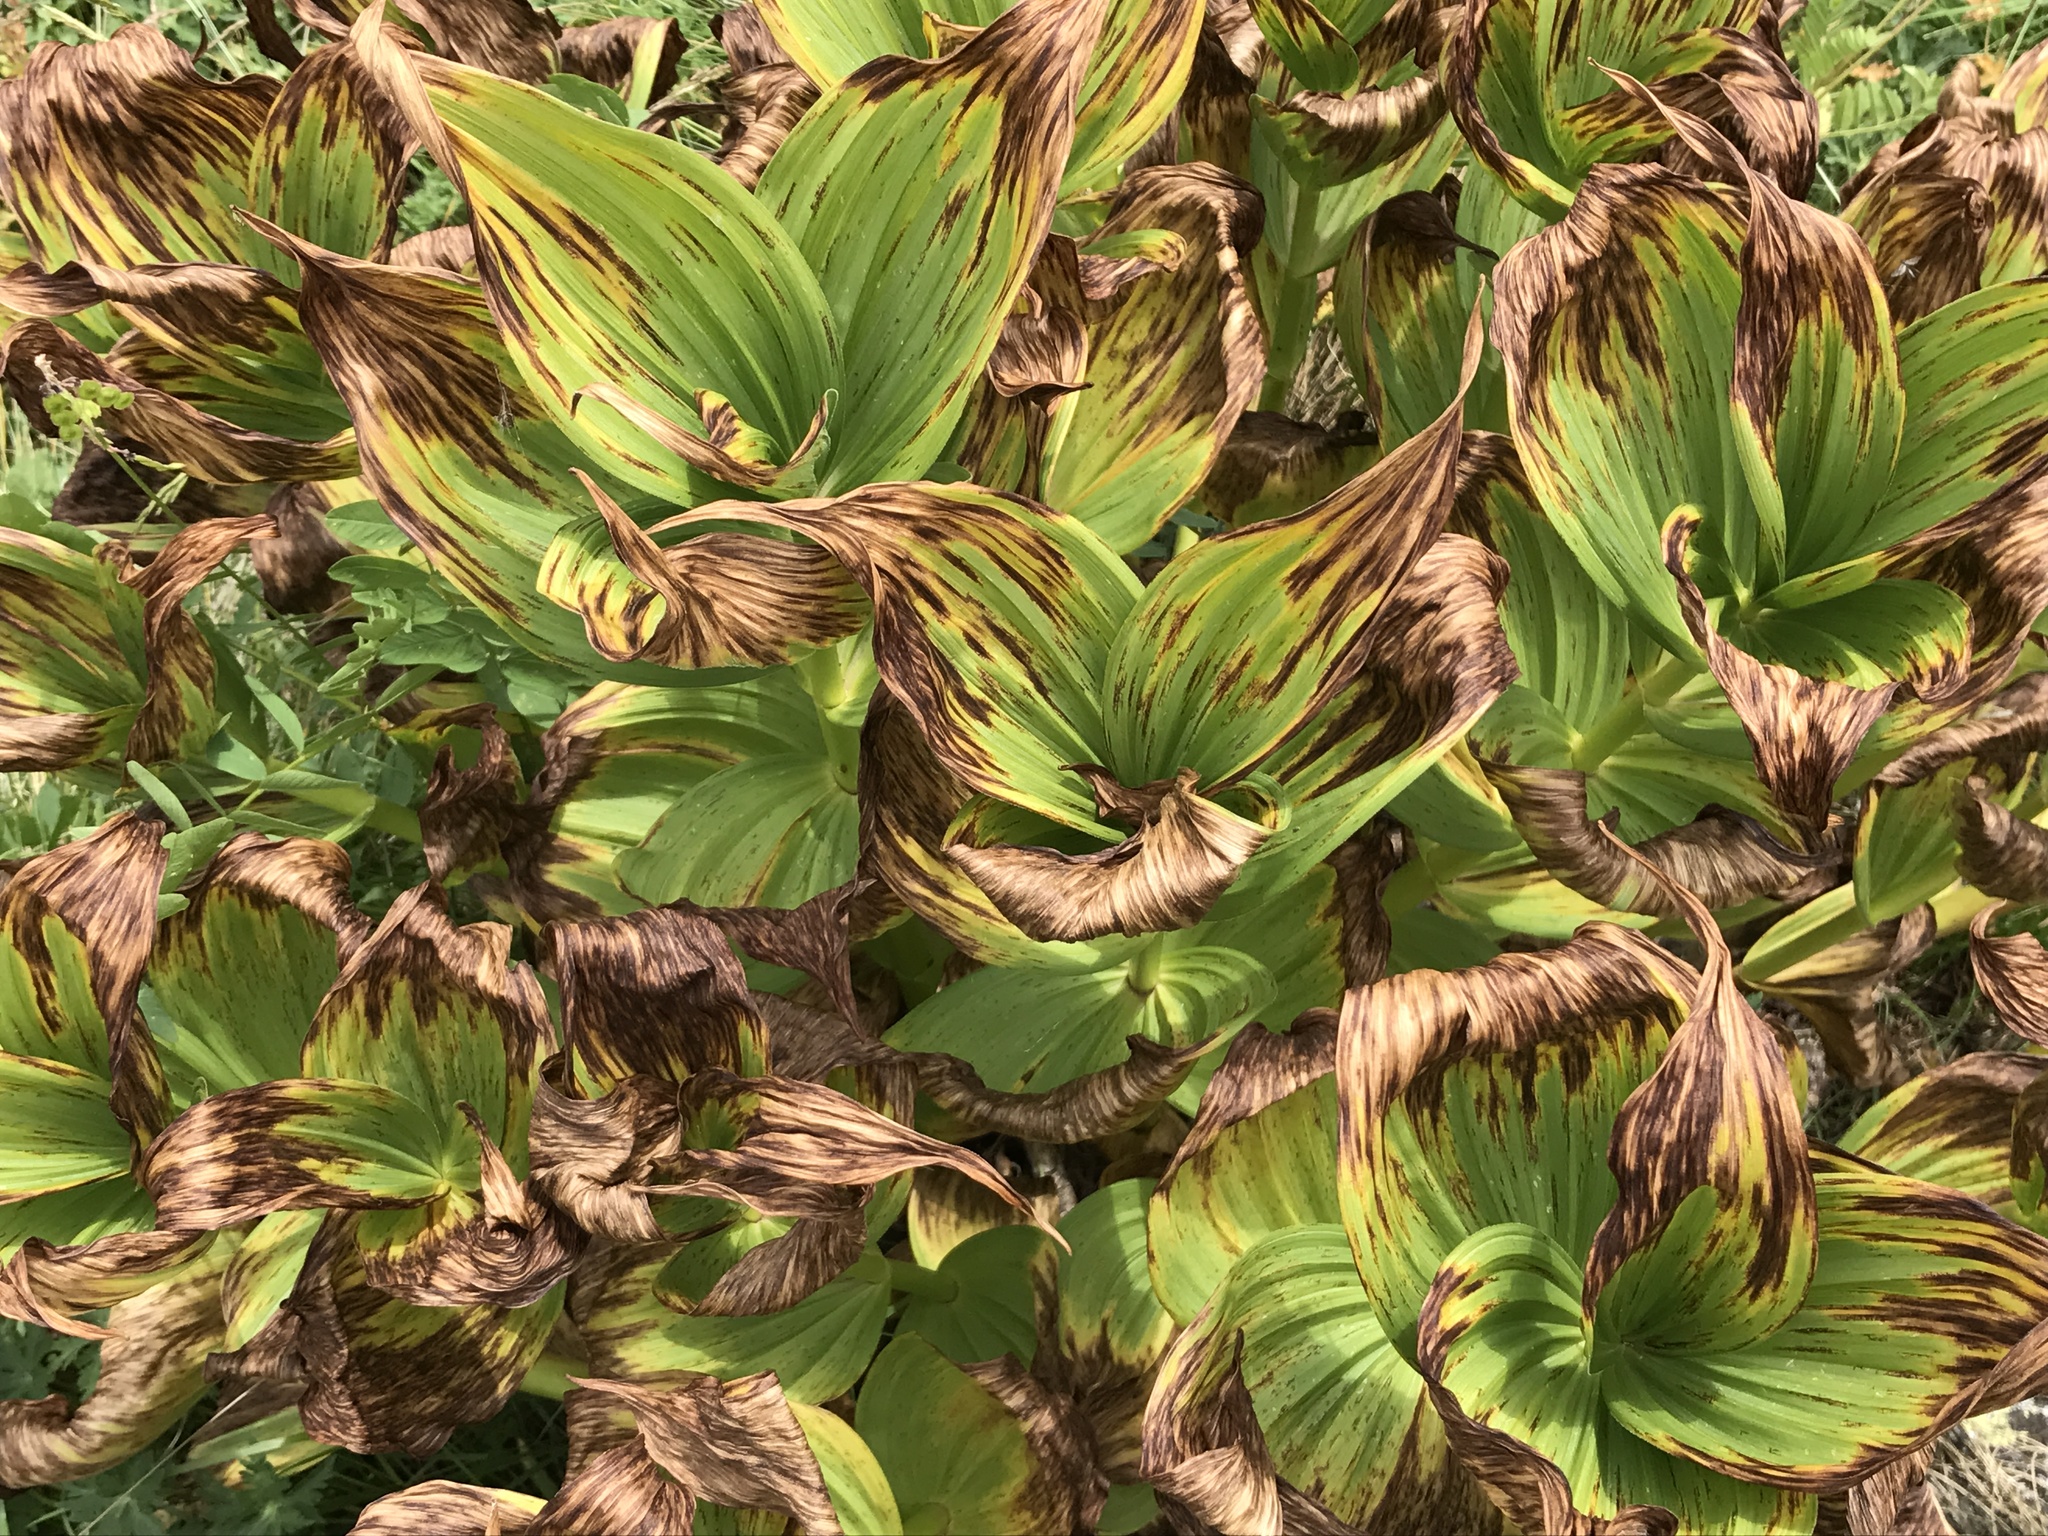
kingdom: Plantae
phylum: Tracheophyta
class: Liliopsida
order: Liliales
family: Melanthiaceae
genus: Veratrum
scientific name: Veratrum lobelianum
